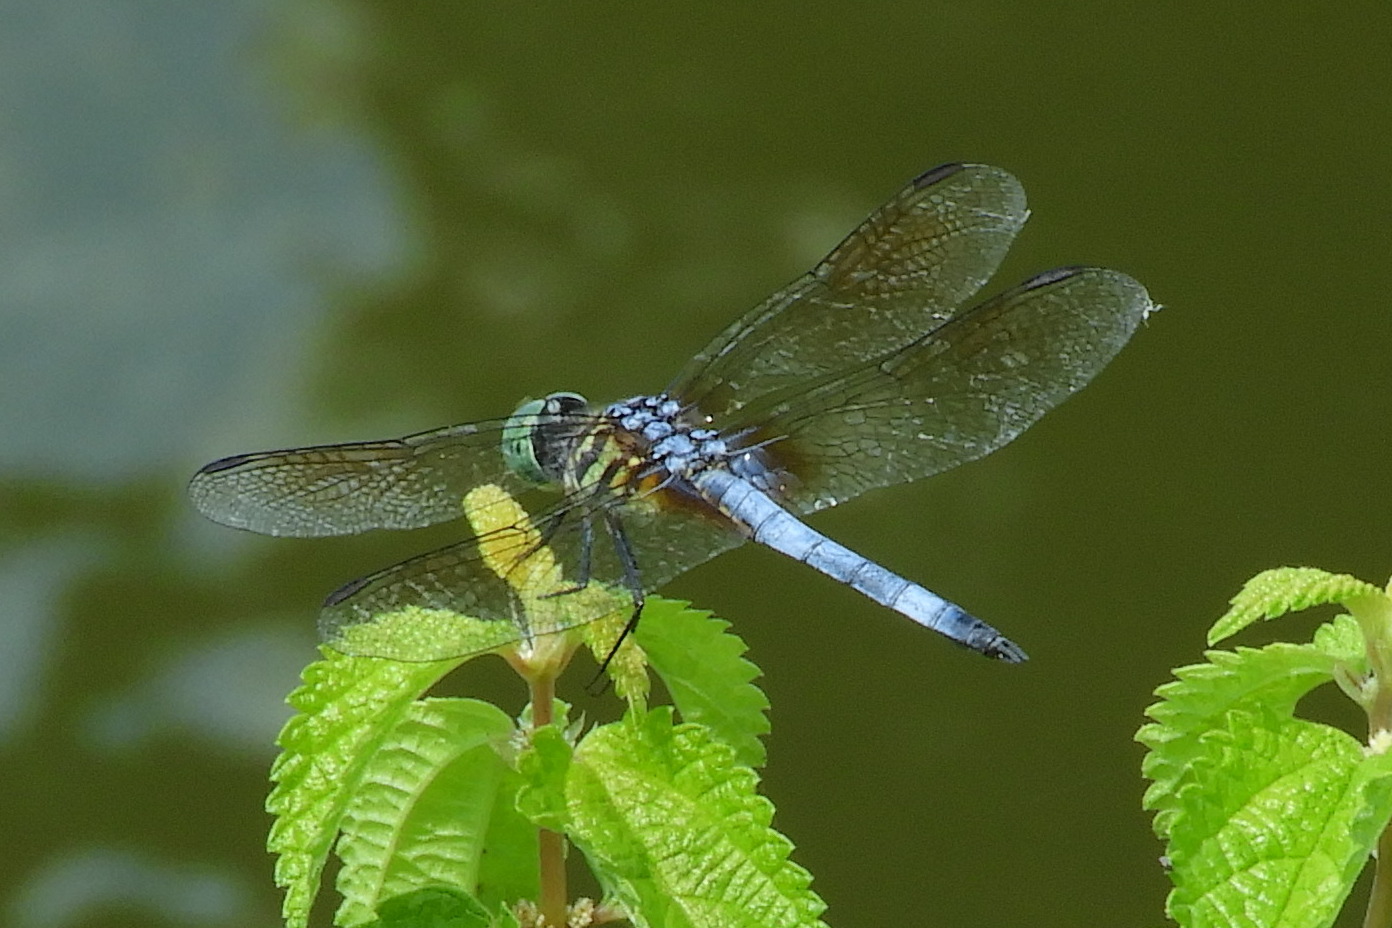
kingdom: Animalia
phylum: Arthropoda
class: Insecta
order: Odonata
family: Libellulidae
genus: Pachydiplax
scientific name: Pachydiplax longipennis
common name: Blue dasher
